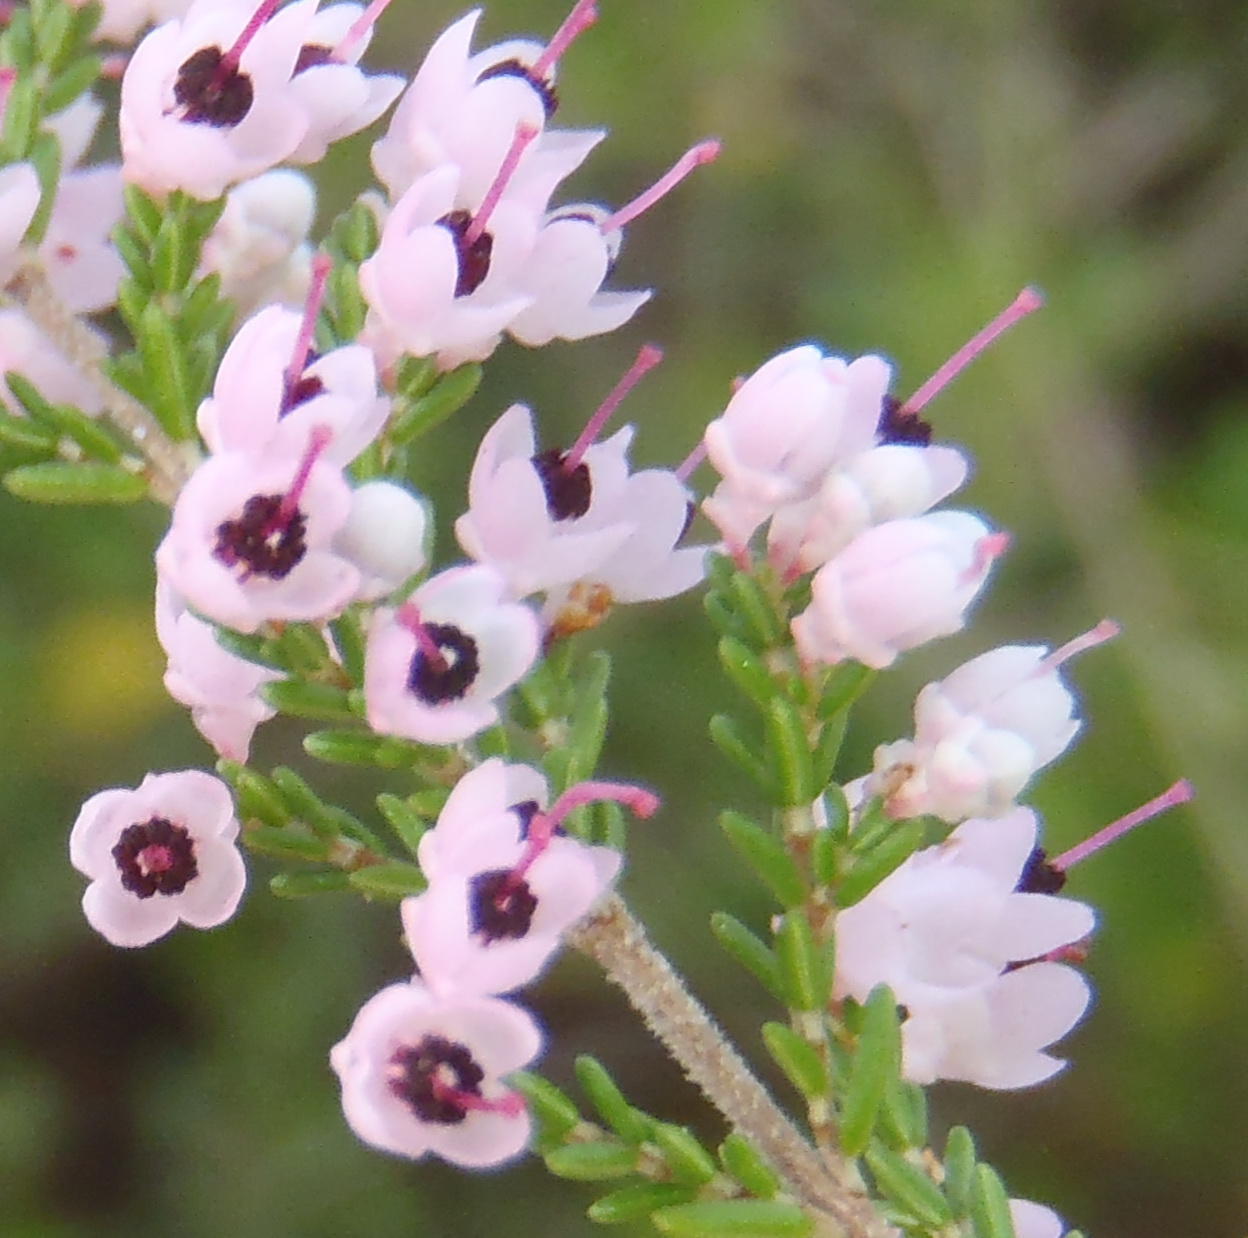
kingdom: Plantae
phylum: Tracheophyta
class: Magnoliopsida
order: Ericales
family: Ericaceae
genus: Erica
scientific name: Erica sparsa
